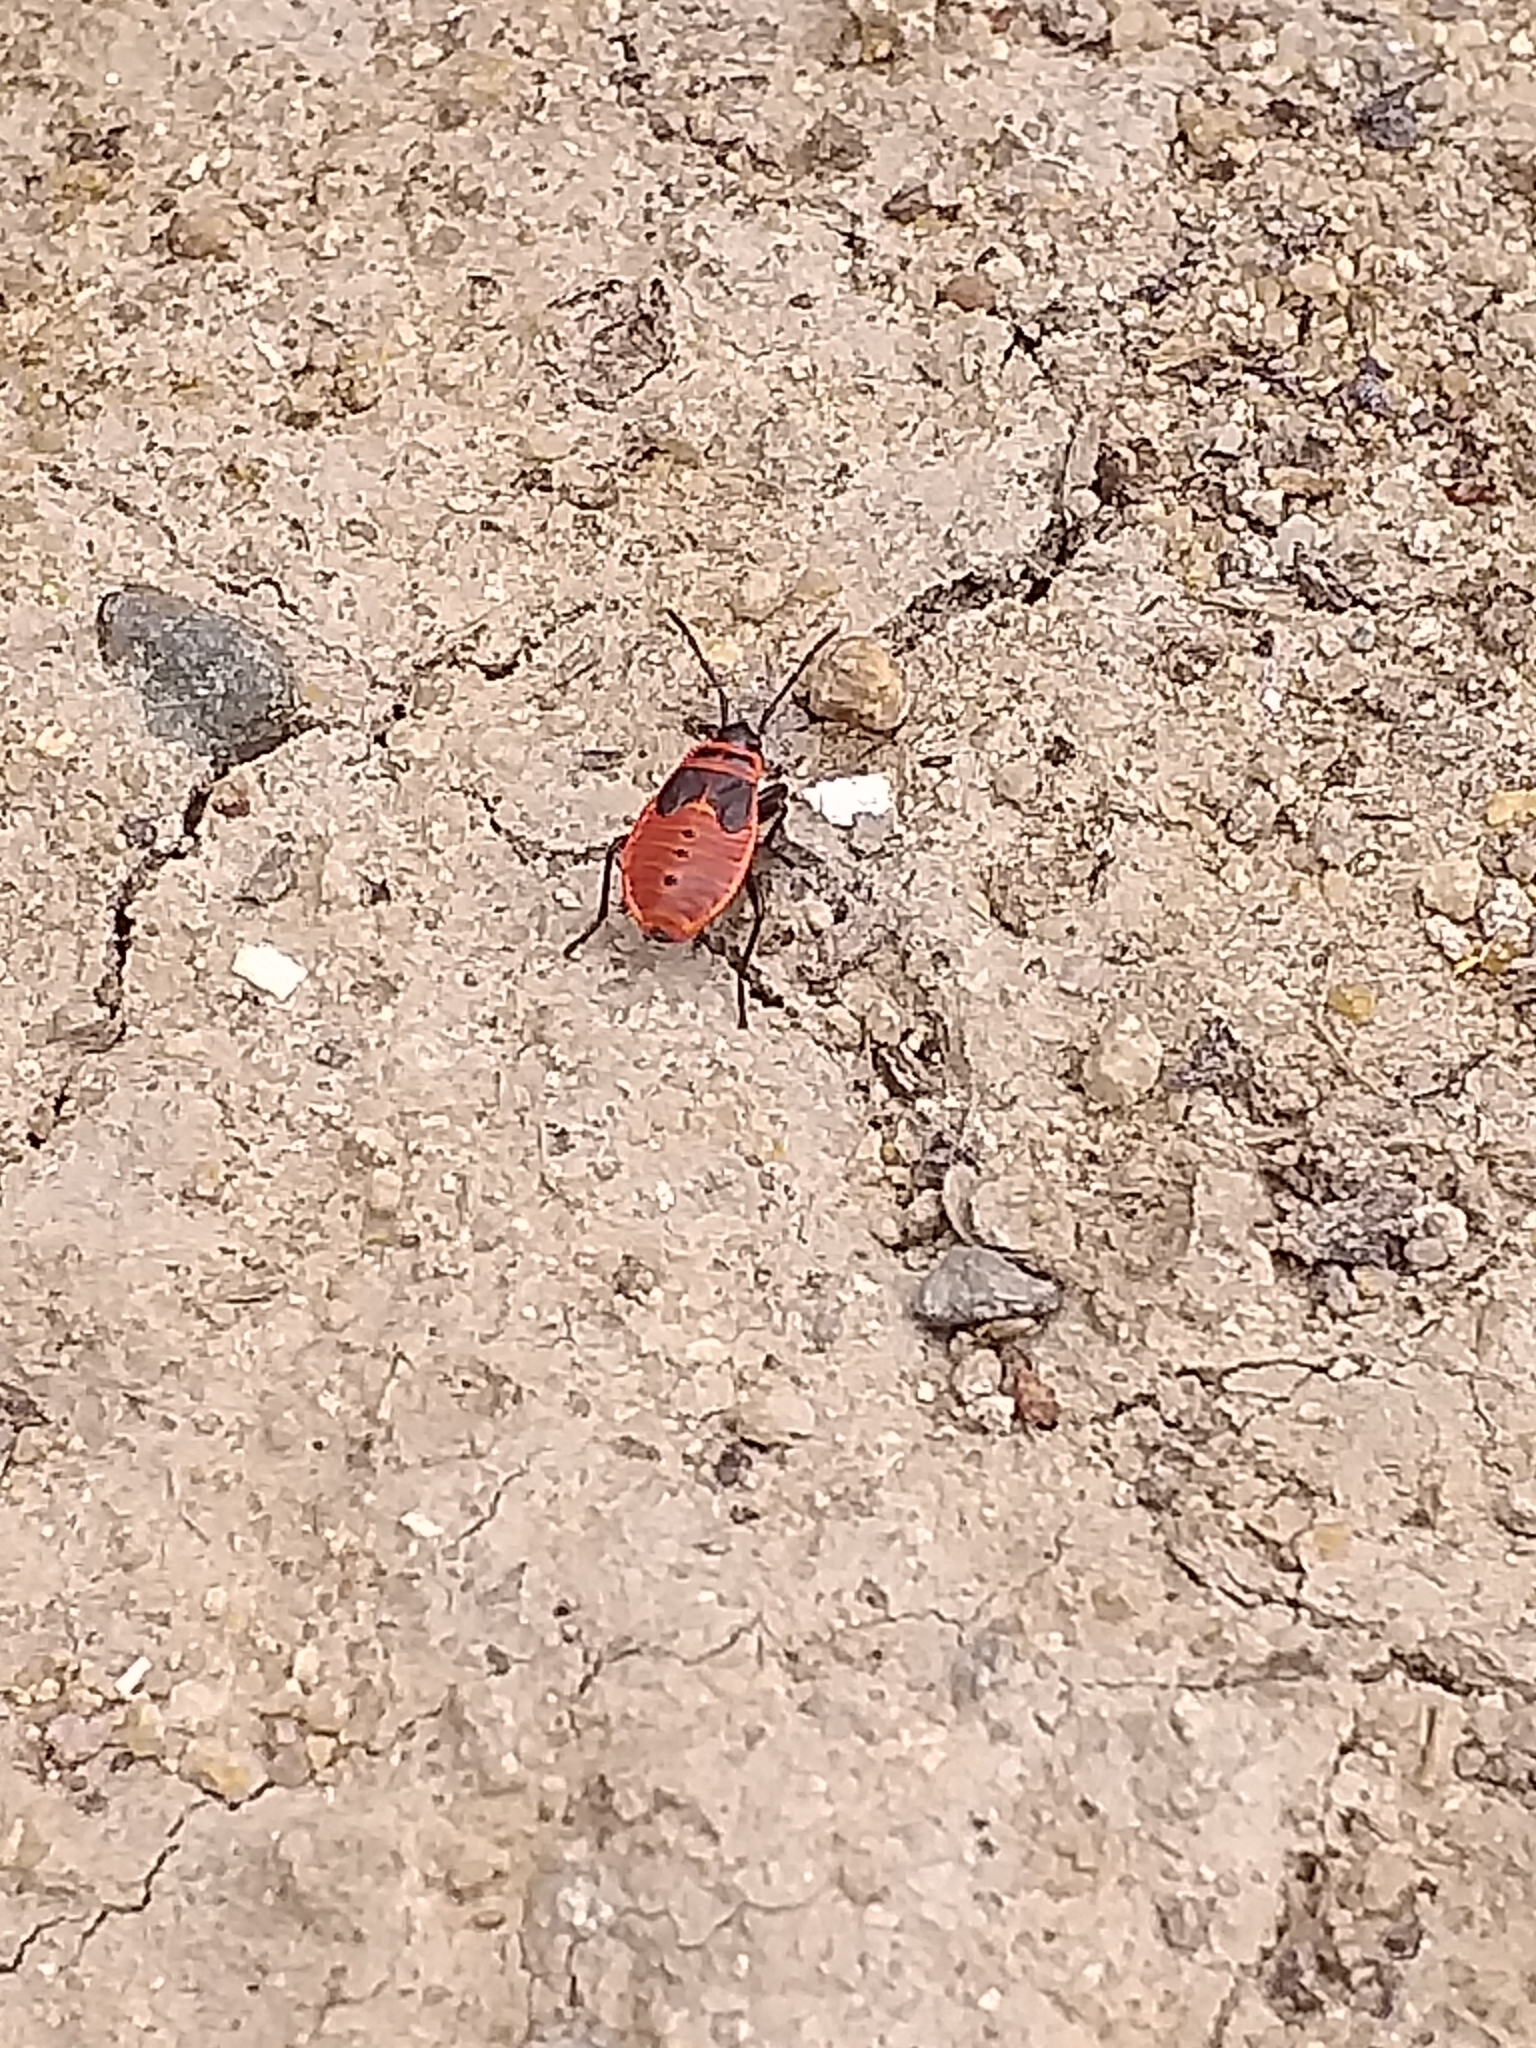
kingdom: Animalia
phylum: Arthropoda
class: Insecta
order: Hemiptera
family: Pyrrhocoridae
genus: Pyrrhocoris
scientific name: Pyrrhocoris apterus
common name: Firebug
